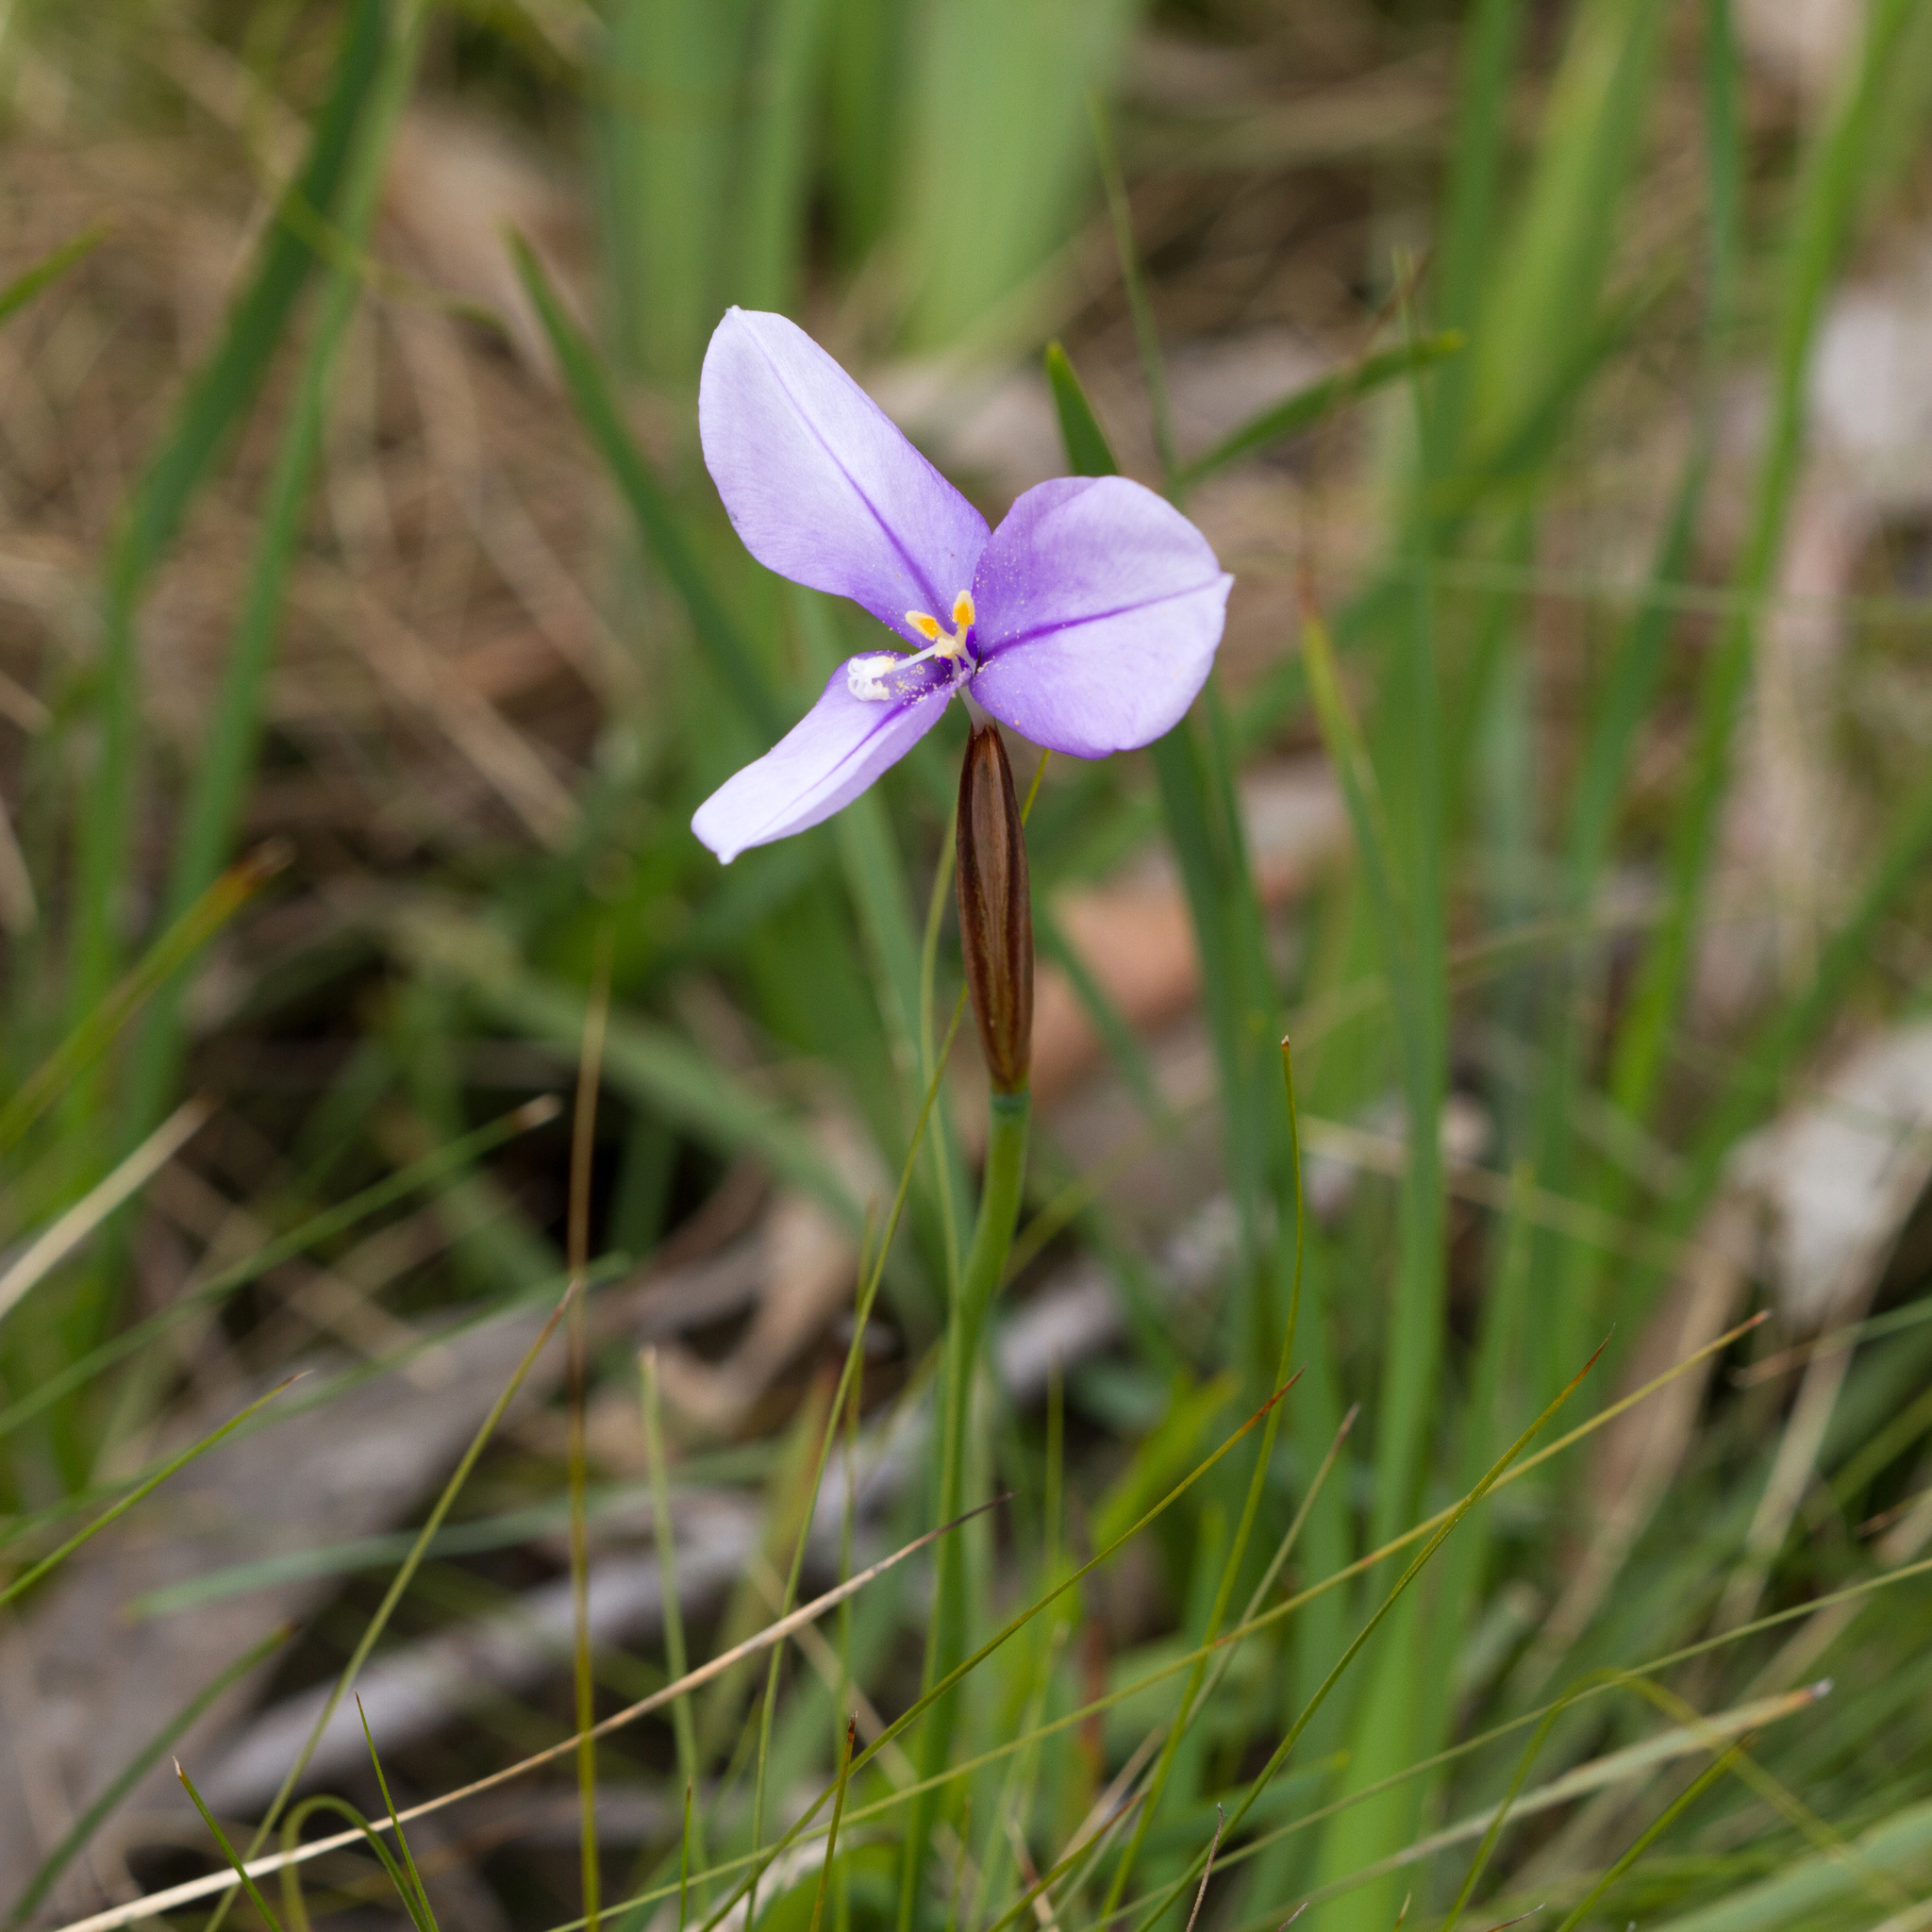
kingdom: Plantae
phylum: Tracheophyta
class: Liliopsida
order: Asparagales
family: Iridaceae
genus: Patersonia
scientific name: Patersonia occidentalis
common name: Long purple-flag
